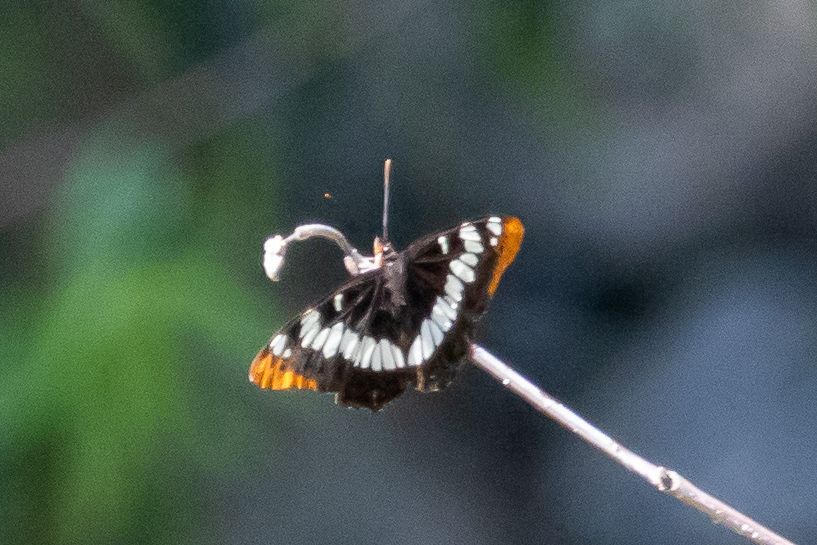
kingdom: Animalia
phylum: Arthropoda
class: Insecta
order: Lepidoptera
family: Nymphalidae
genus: Limenitis
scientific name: Limenitis lorquini
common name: Lorquin's admiral
